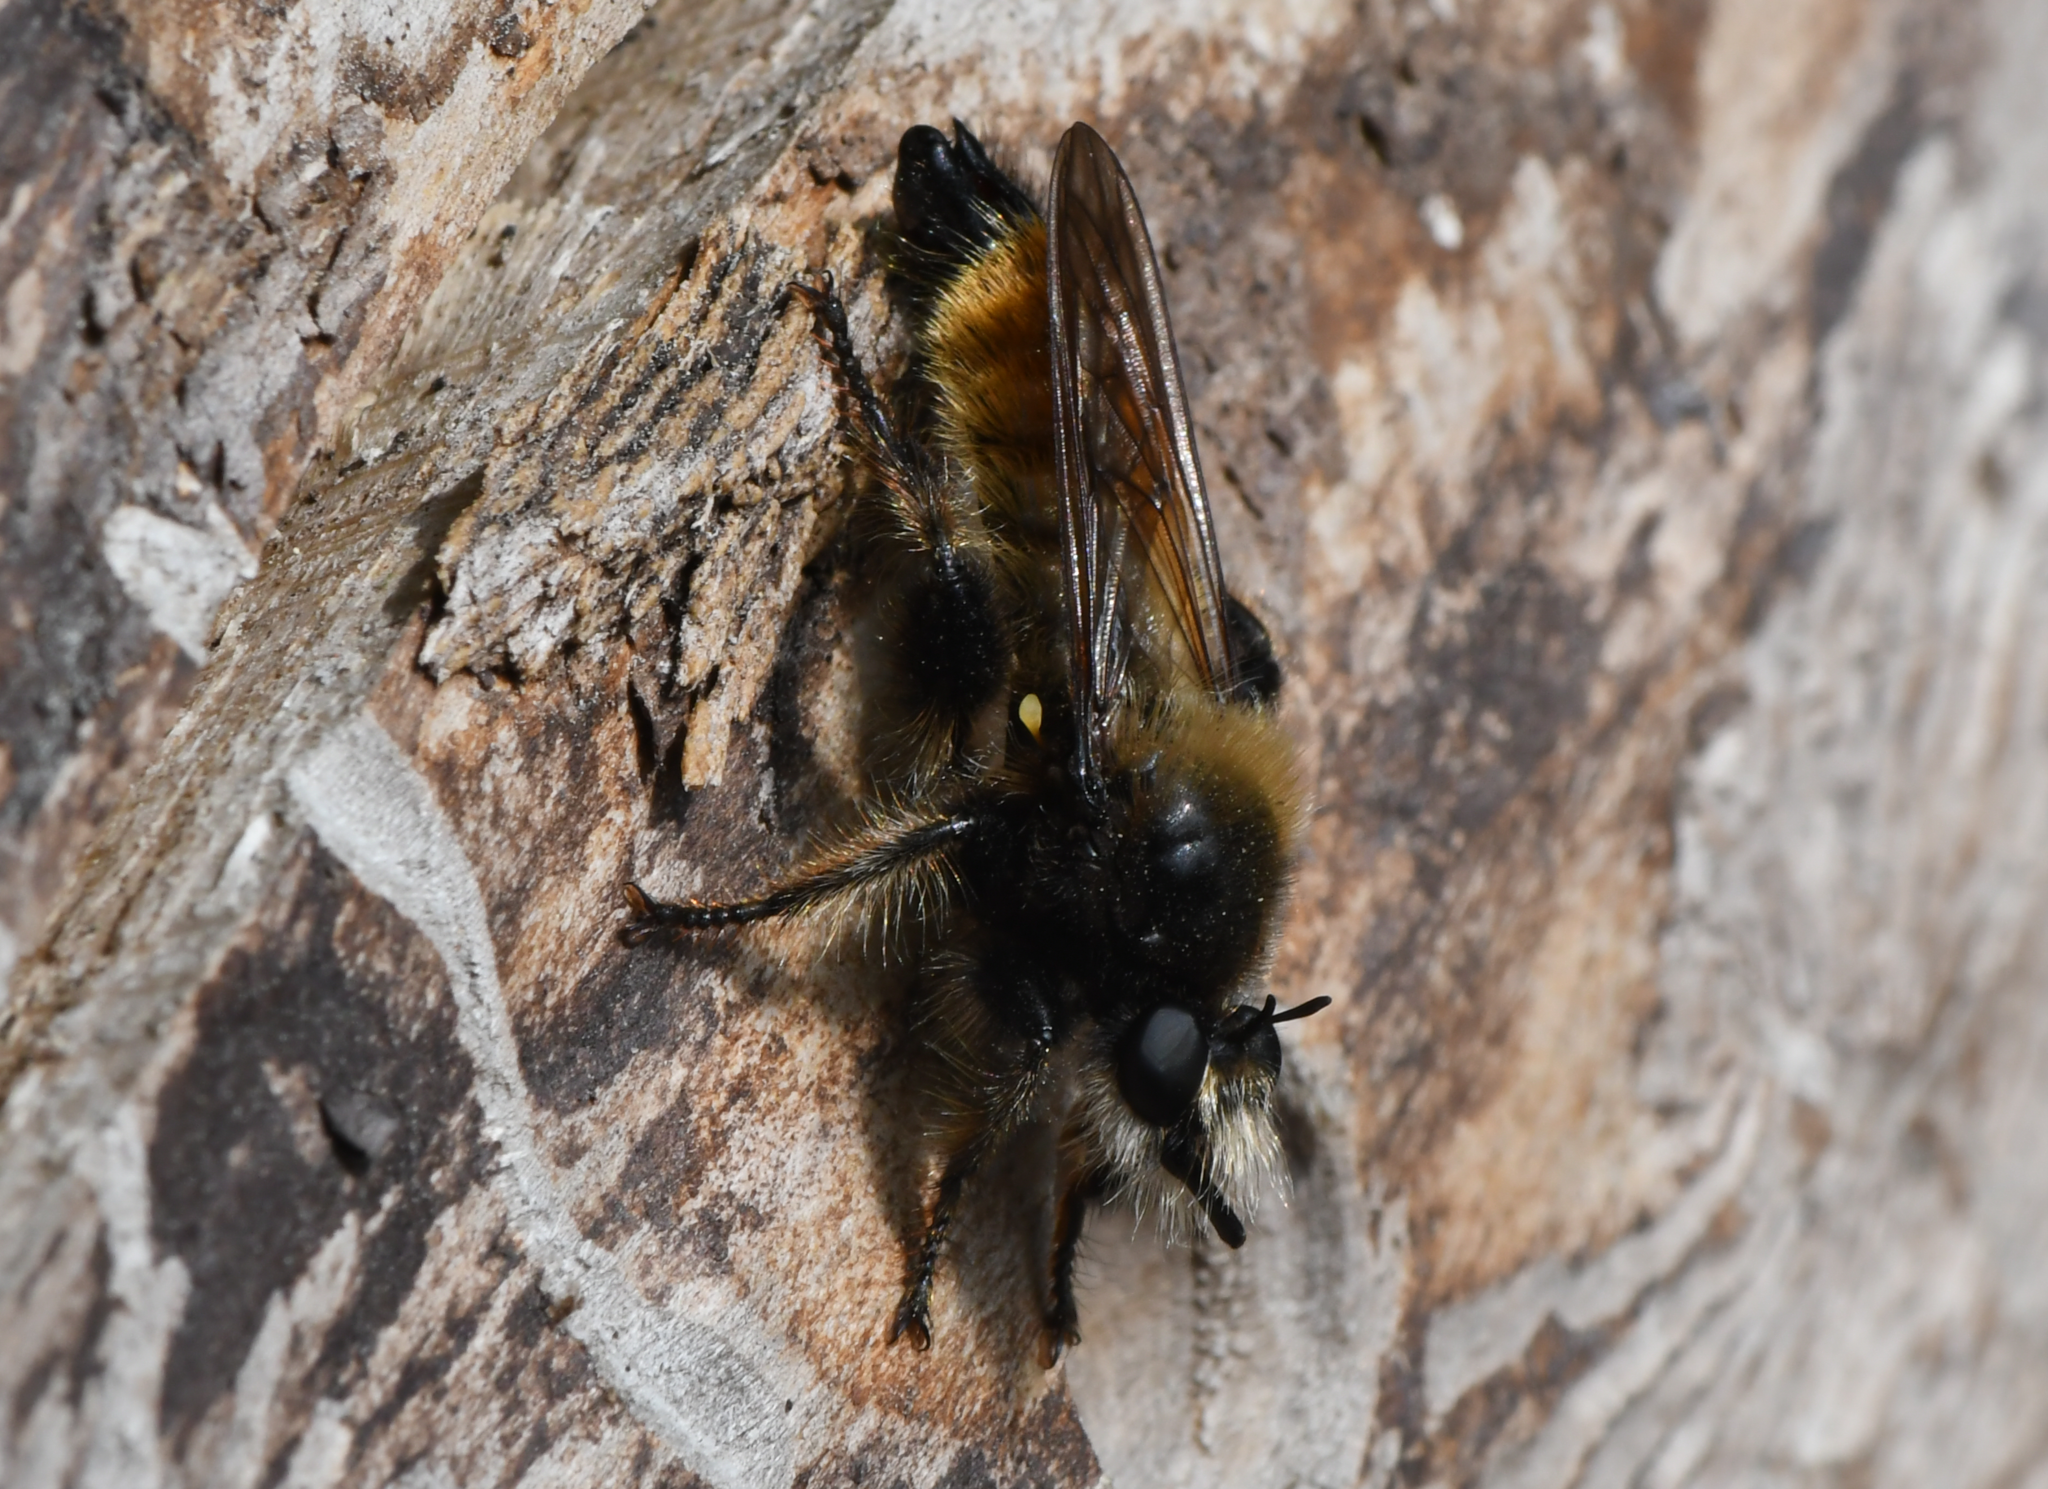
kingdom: Animalia
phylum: Arthropoda
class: Insecta
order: Diptera
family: Asilidae
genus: Laphria
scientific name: Laphria flava
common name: Bumblebee robberfly
